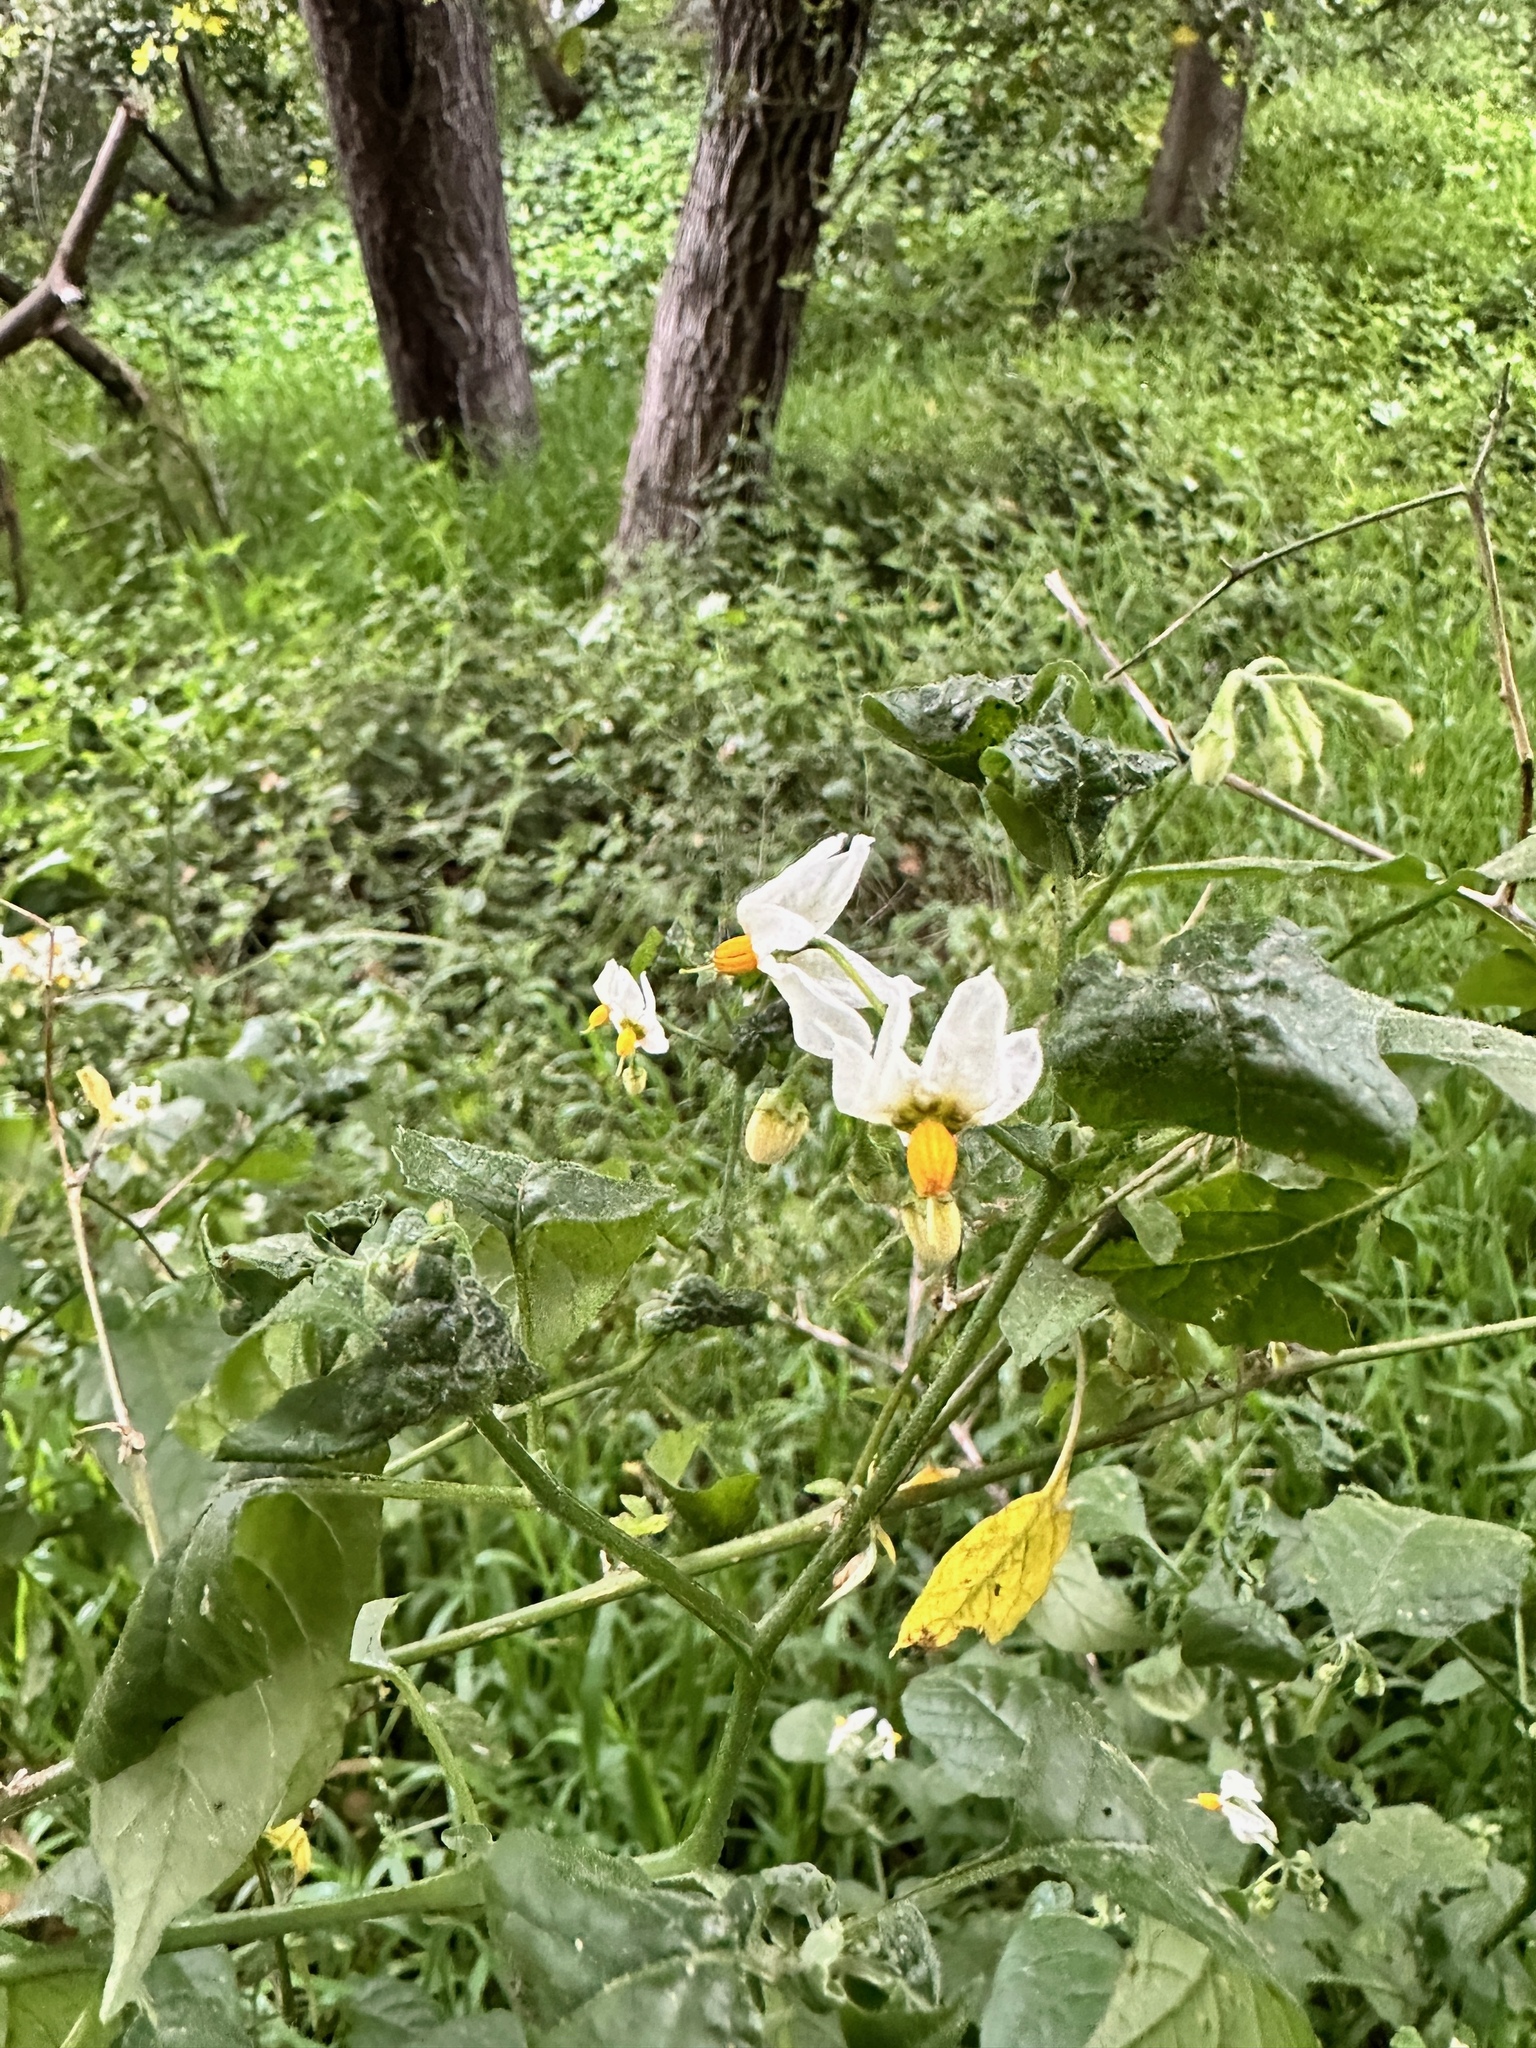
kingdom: Plantae
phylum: Tracheophyta
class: Magnoliopsida
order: Solanales
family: Solanaceae
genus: Solanum
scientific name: Solanum douglasii
